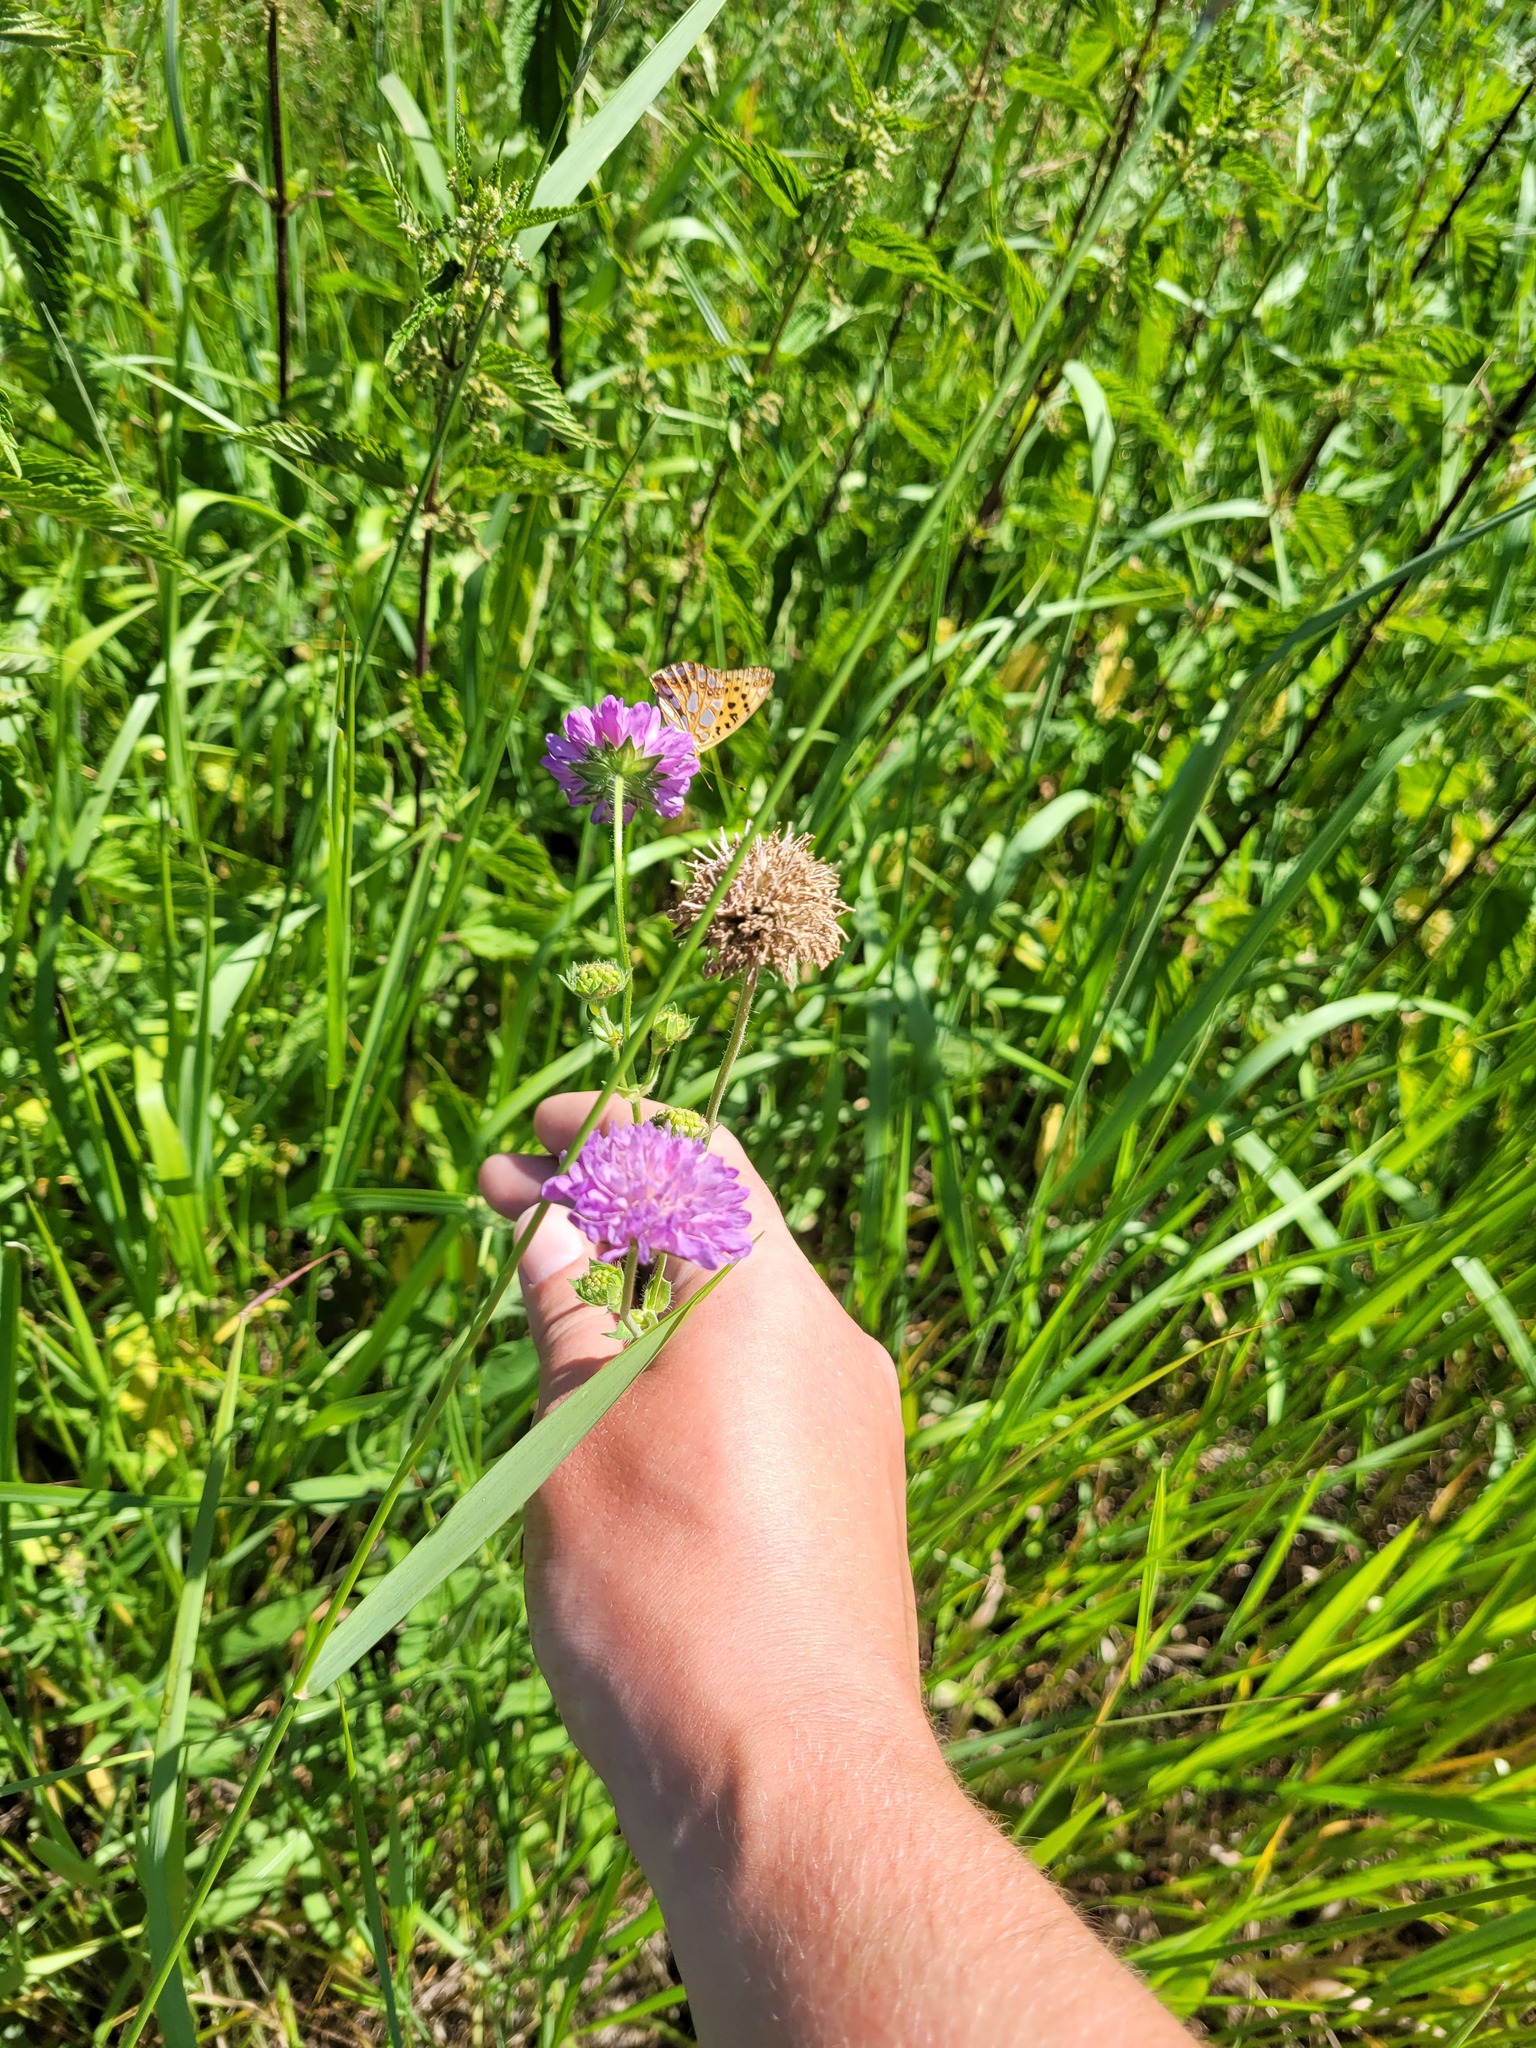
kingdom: Plantae
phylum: Tracheophyta
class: Magnoliopsida
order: Dipsacales
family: Caprifoliaceae
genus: Knautia
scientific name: Knautia arvensis
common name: Field scabiosa
